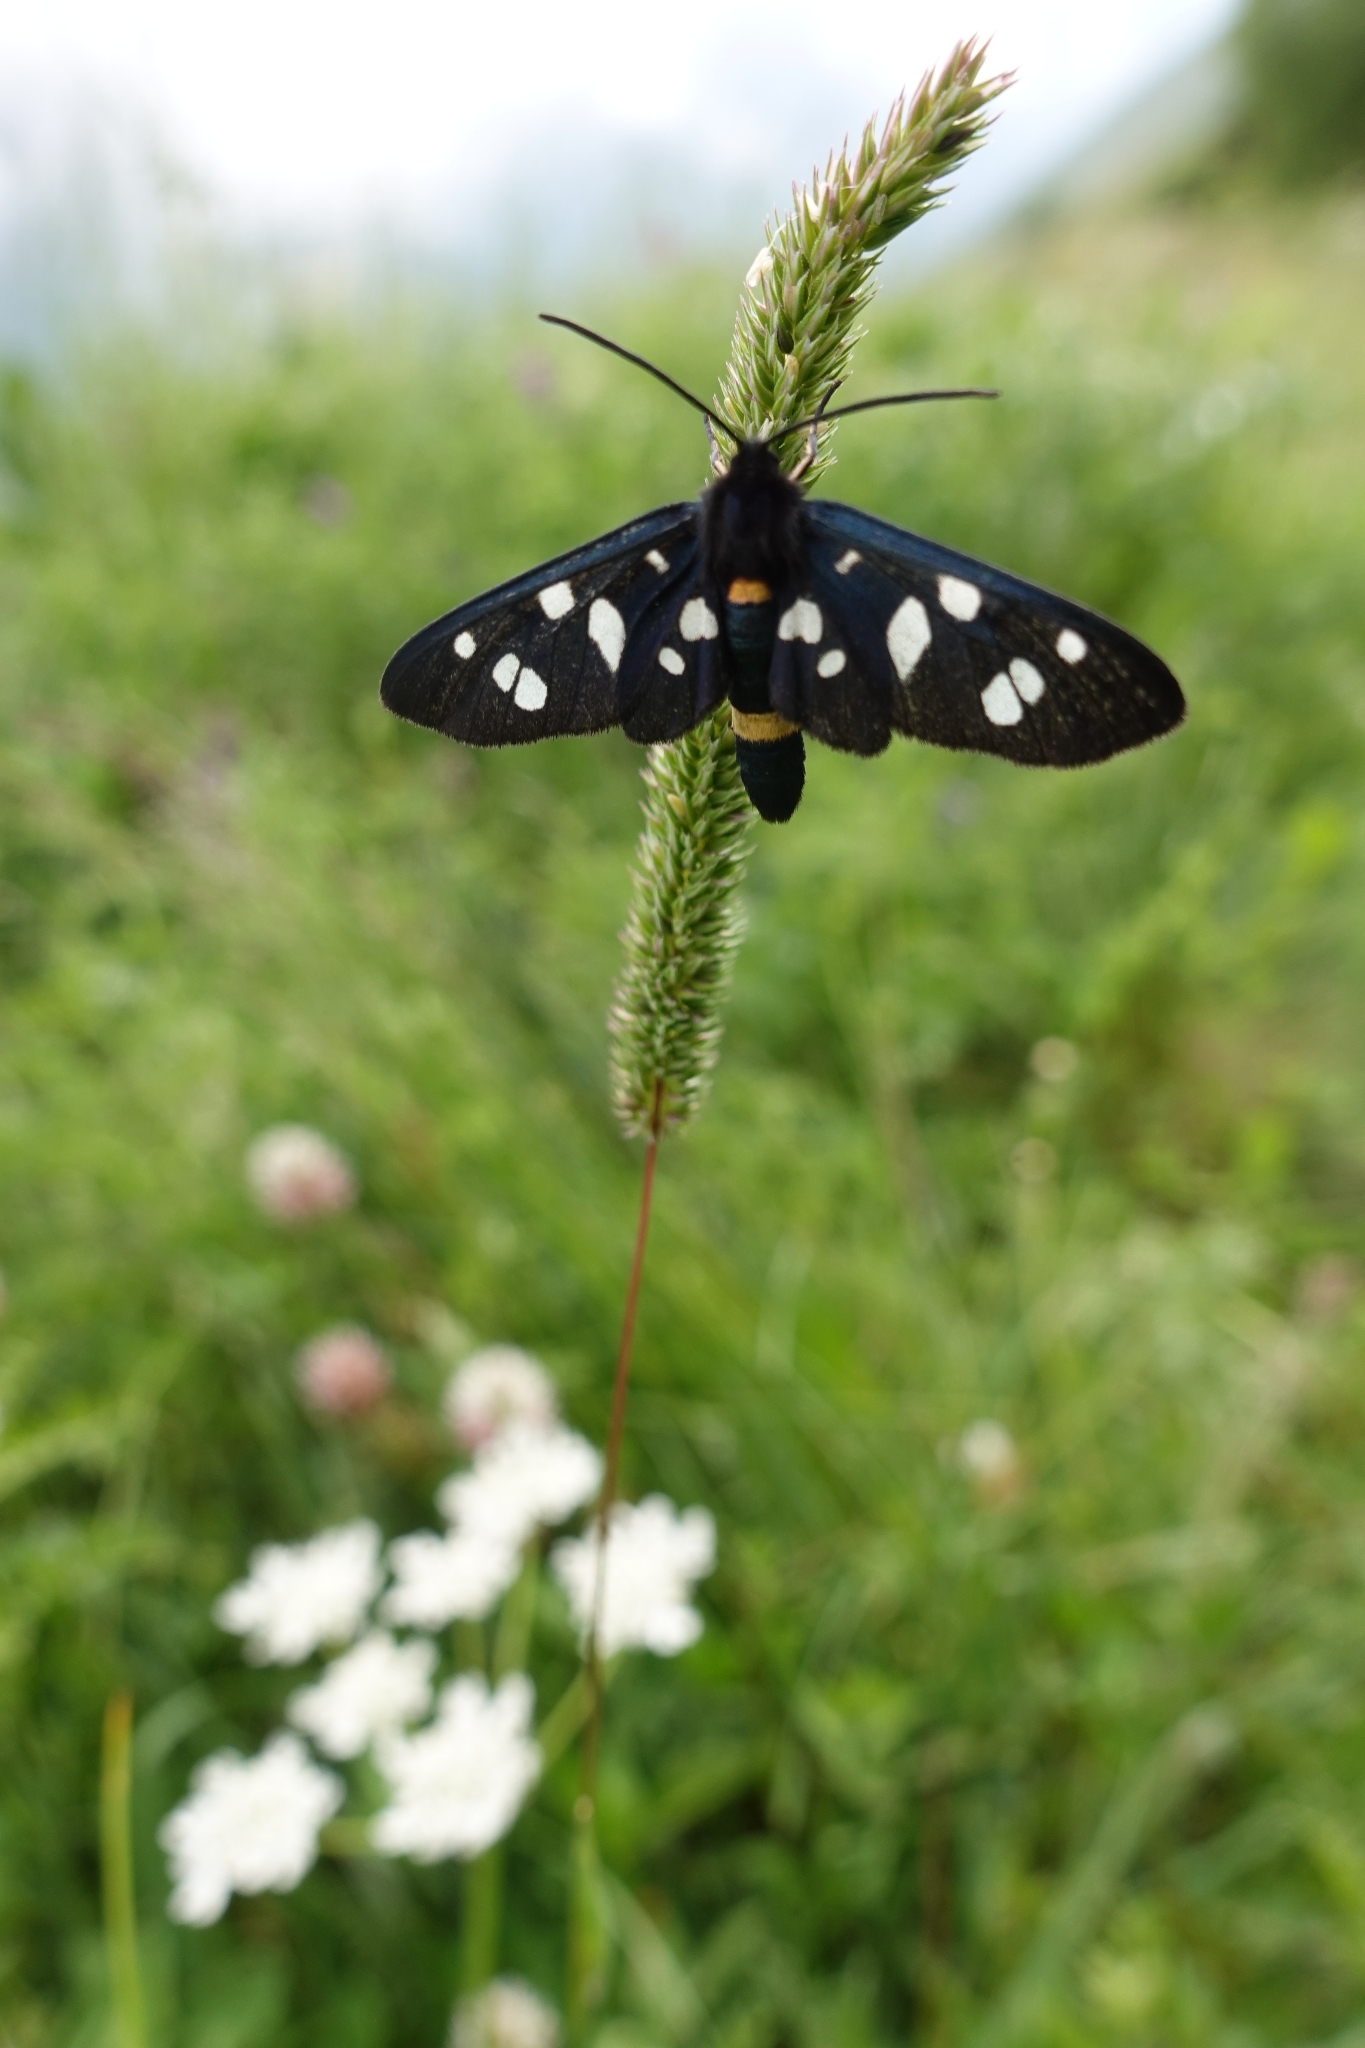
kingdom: Animalia
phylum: Arthropoda
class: Insecta
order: Lepidoptera
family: Erebidae
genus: Amata
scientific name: Amata nigricornis
